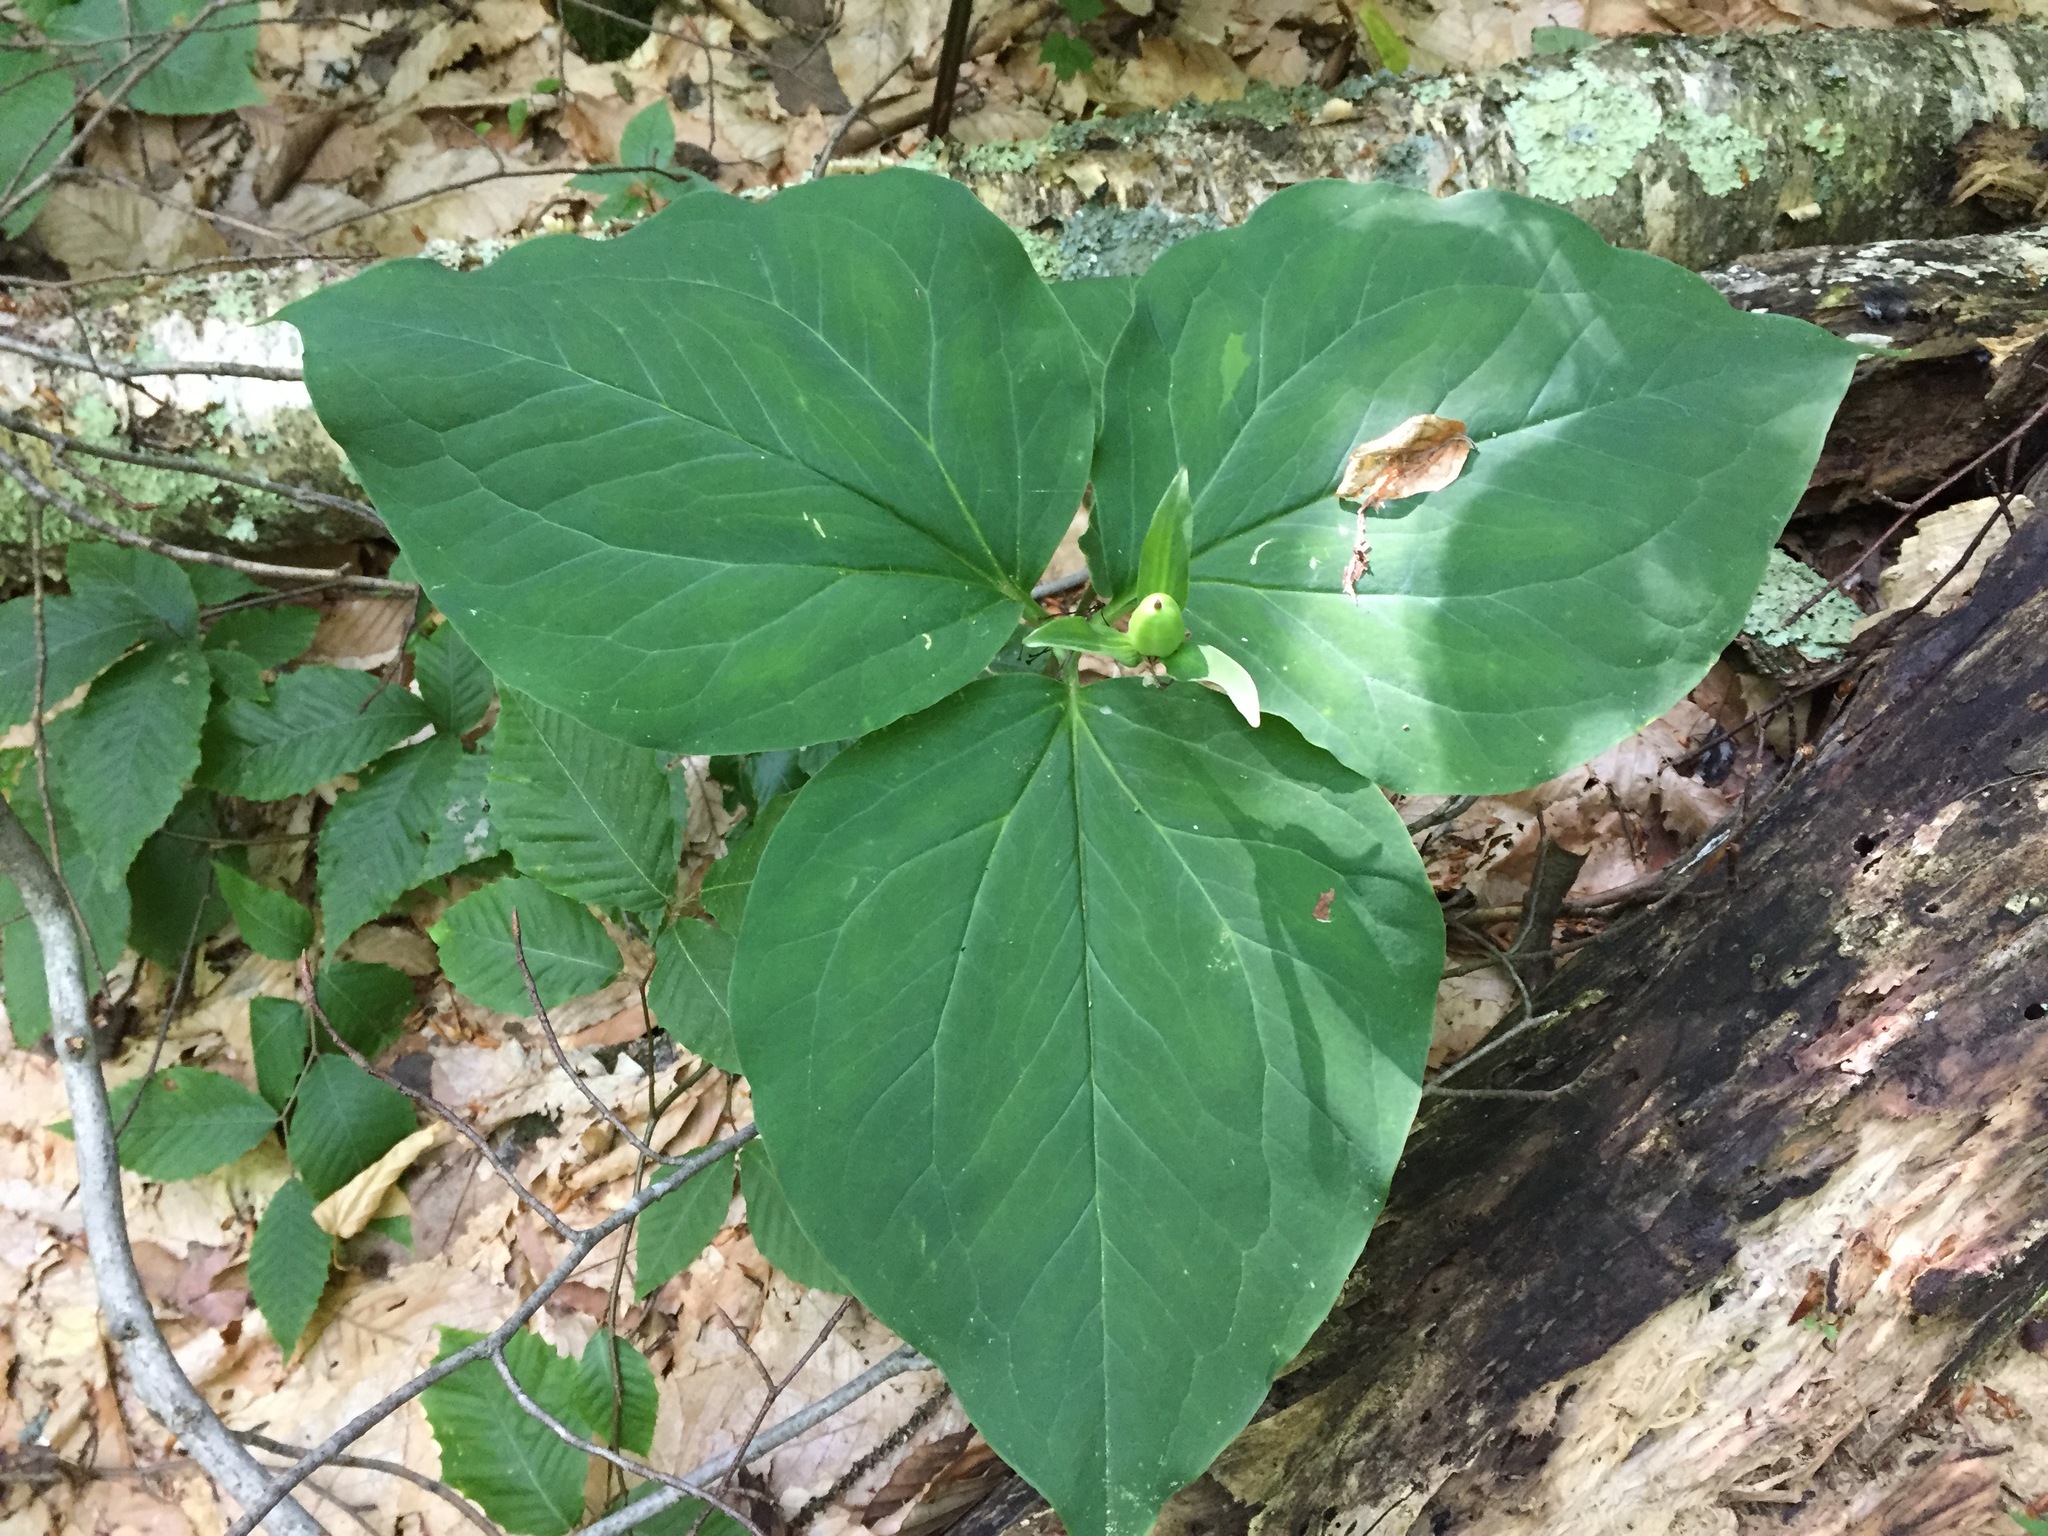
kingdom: Plantae
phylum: Tracheophyta
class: Liliopsida
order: Liliales
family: Melanthiaceae
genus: Trillium
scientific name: Trillium undulatum
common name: Paint trillium
